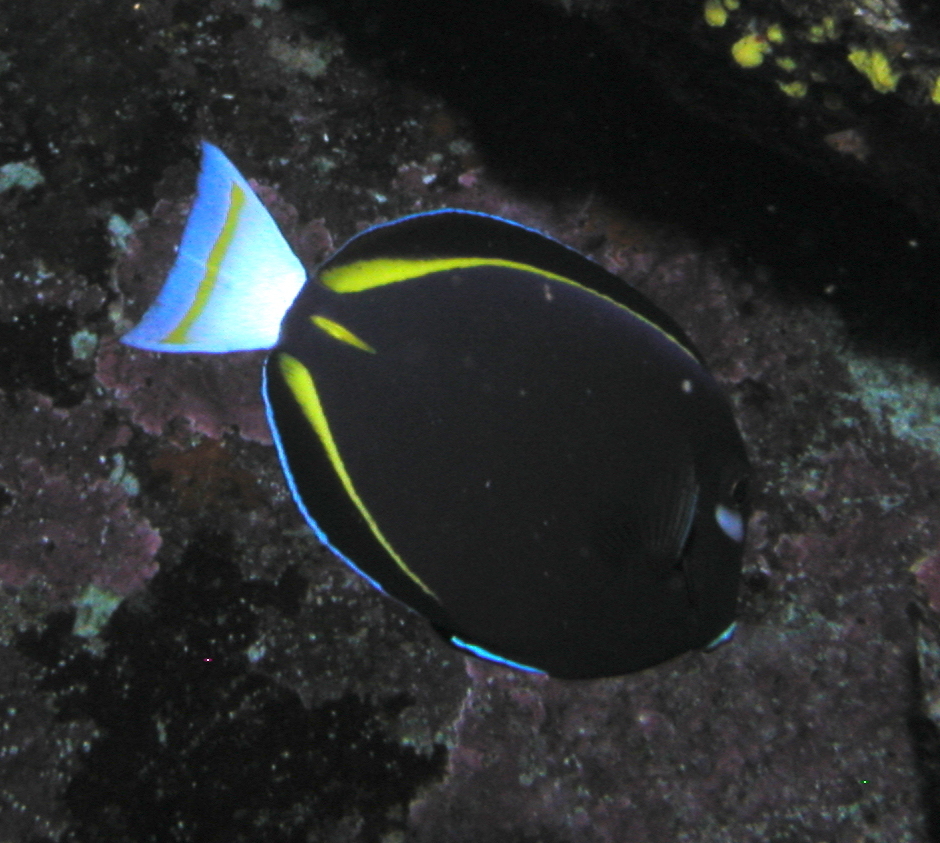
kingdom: Animalia
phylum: Chordata
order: Perciformes
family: Acanthuridae
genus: Acanthurus
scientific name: Acanthurus nigricans
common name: Whitecheek surgeonfish
